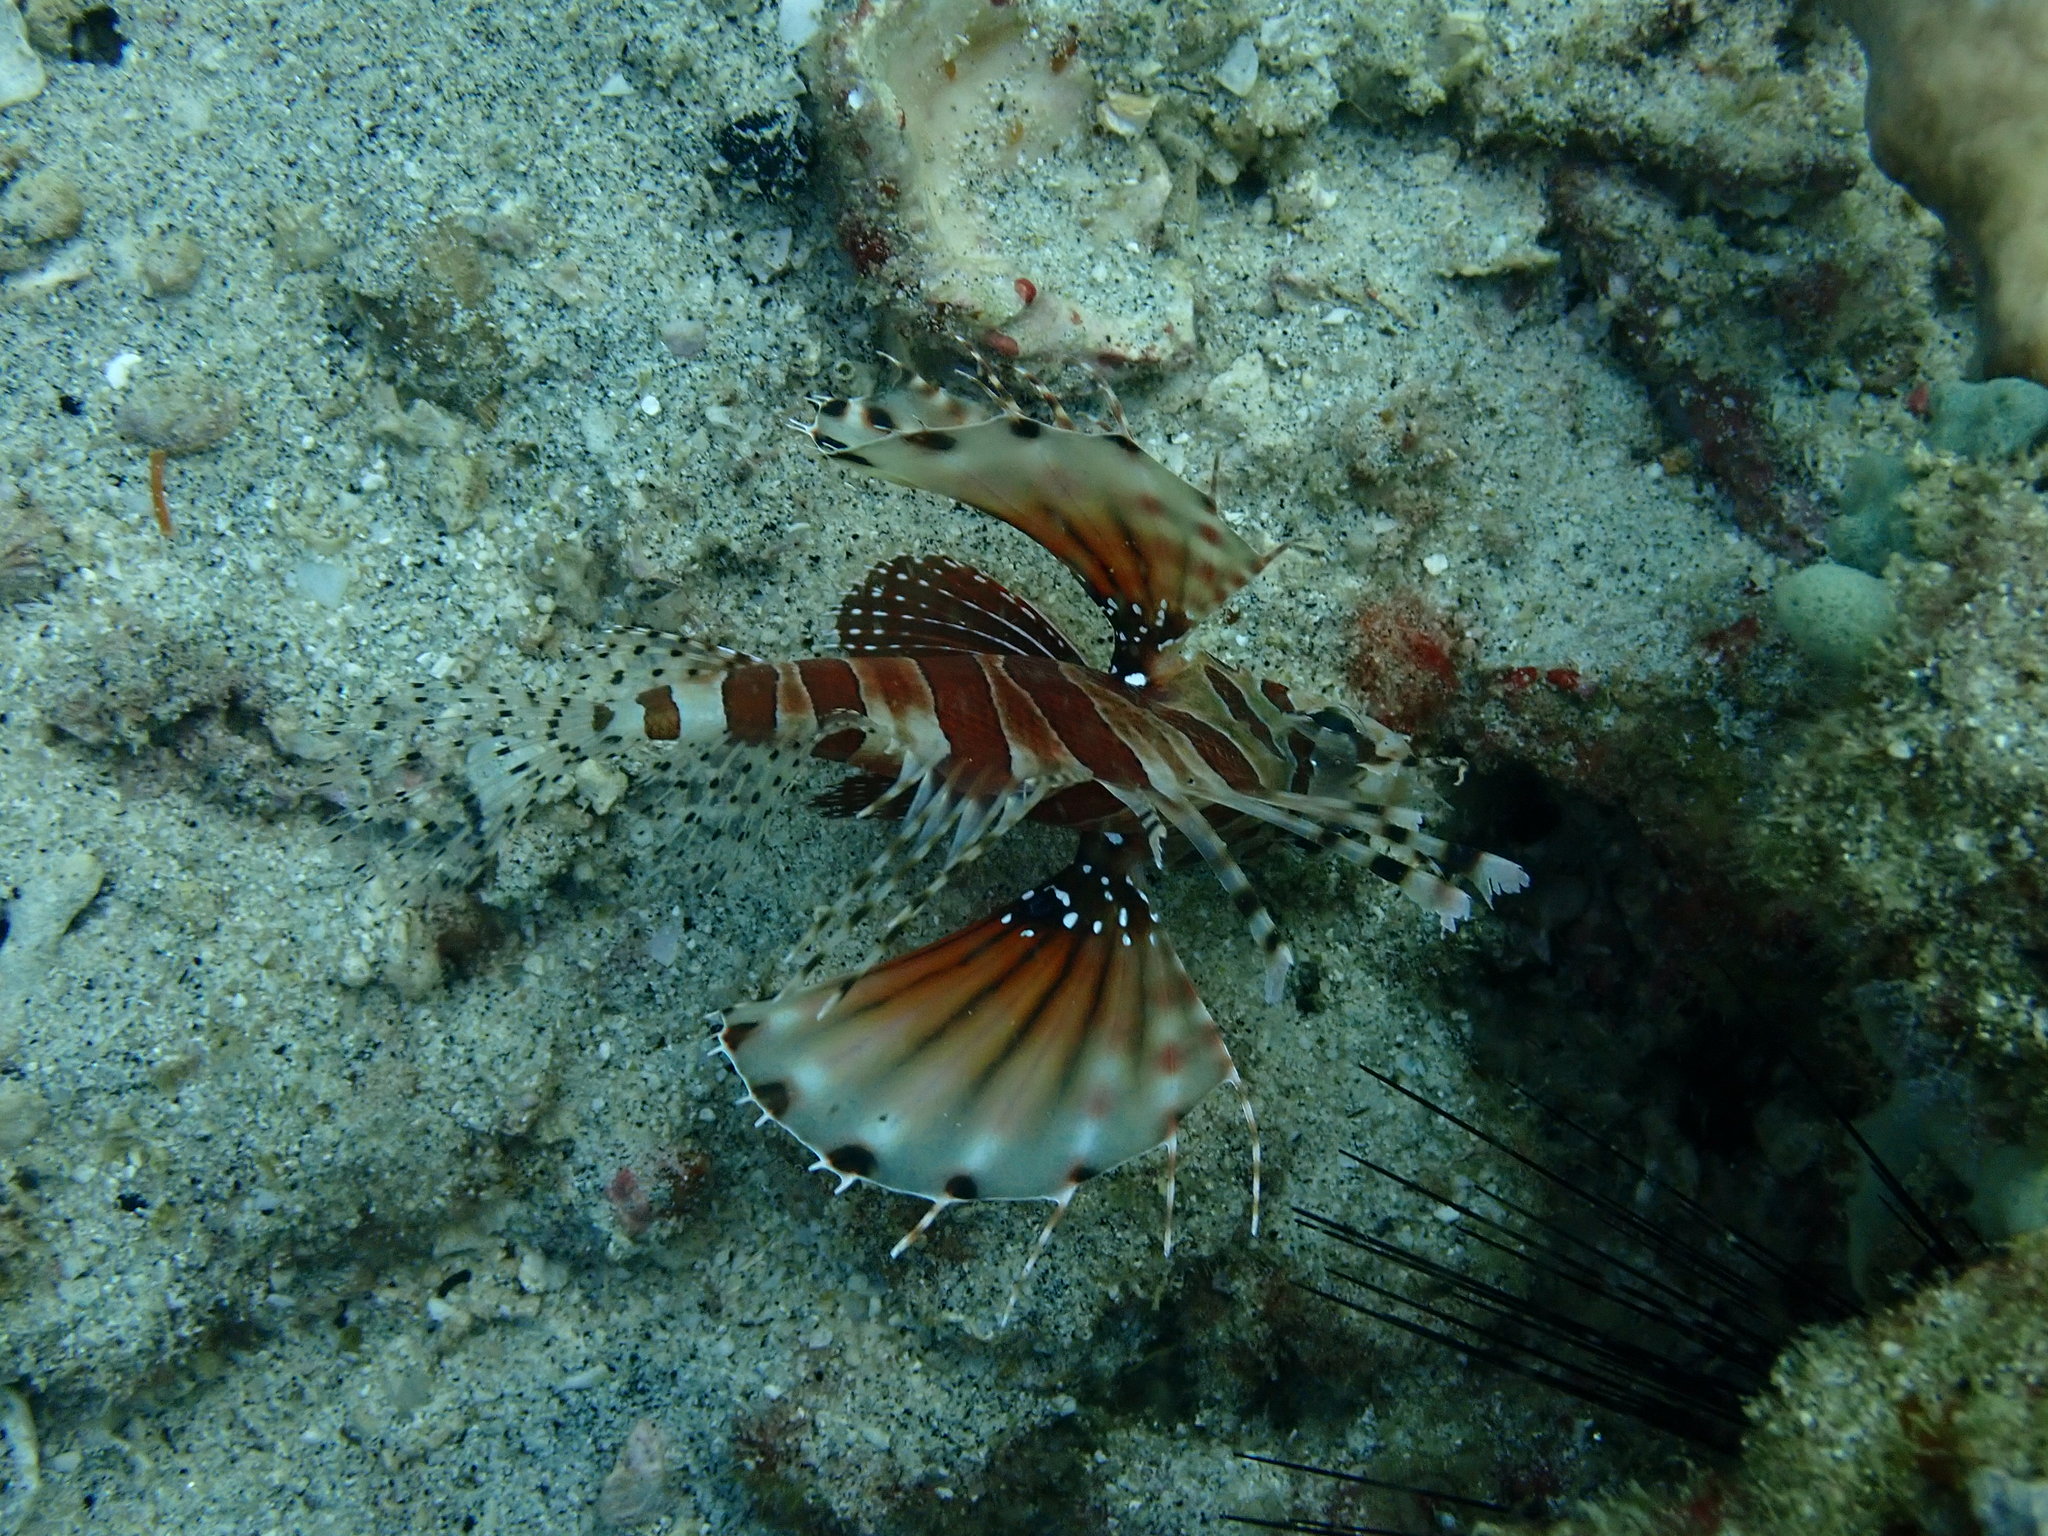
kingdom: Animalia
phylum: Chordata
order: Scorpaeniformes
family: Scorpaenidae
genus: Dendrochirus
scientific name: Dendrochirus zebra
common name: Zebra lionfish
